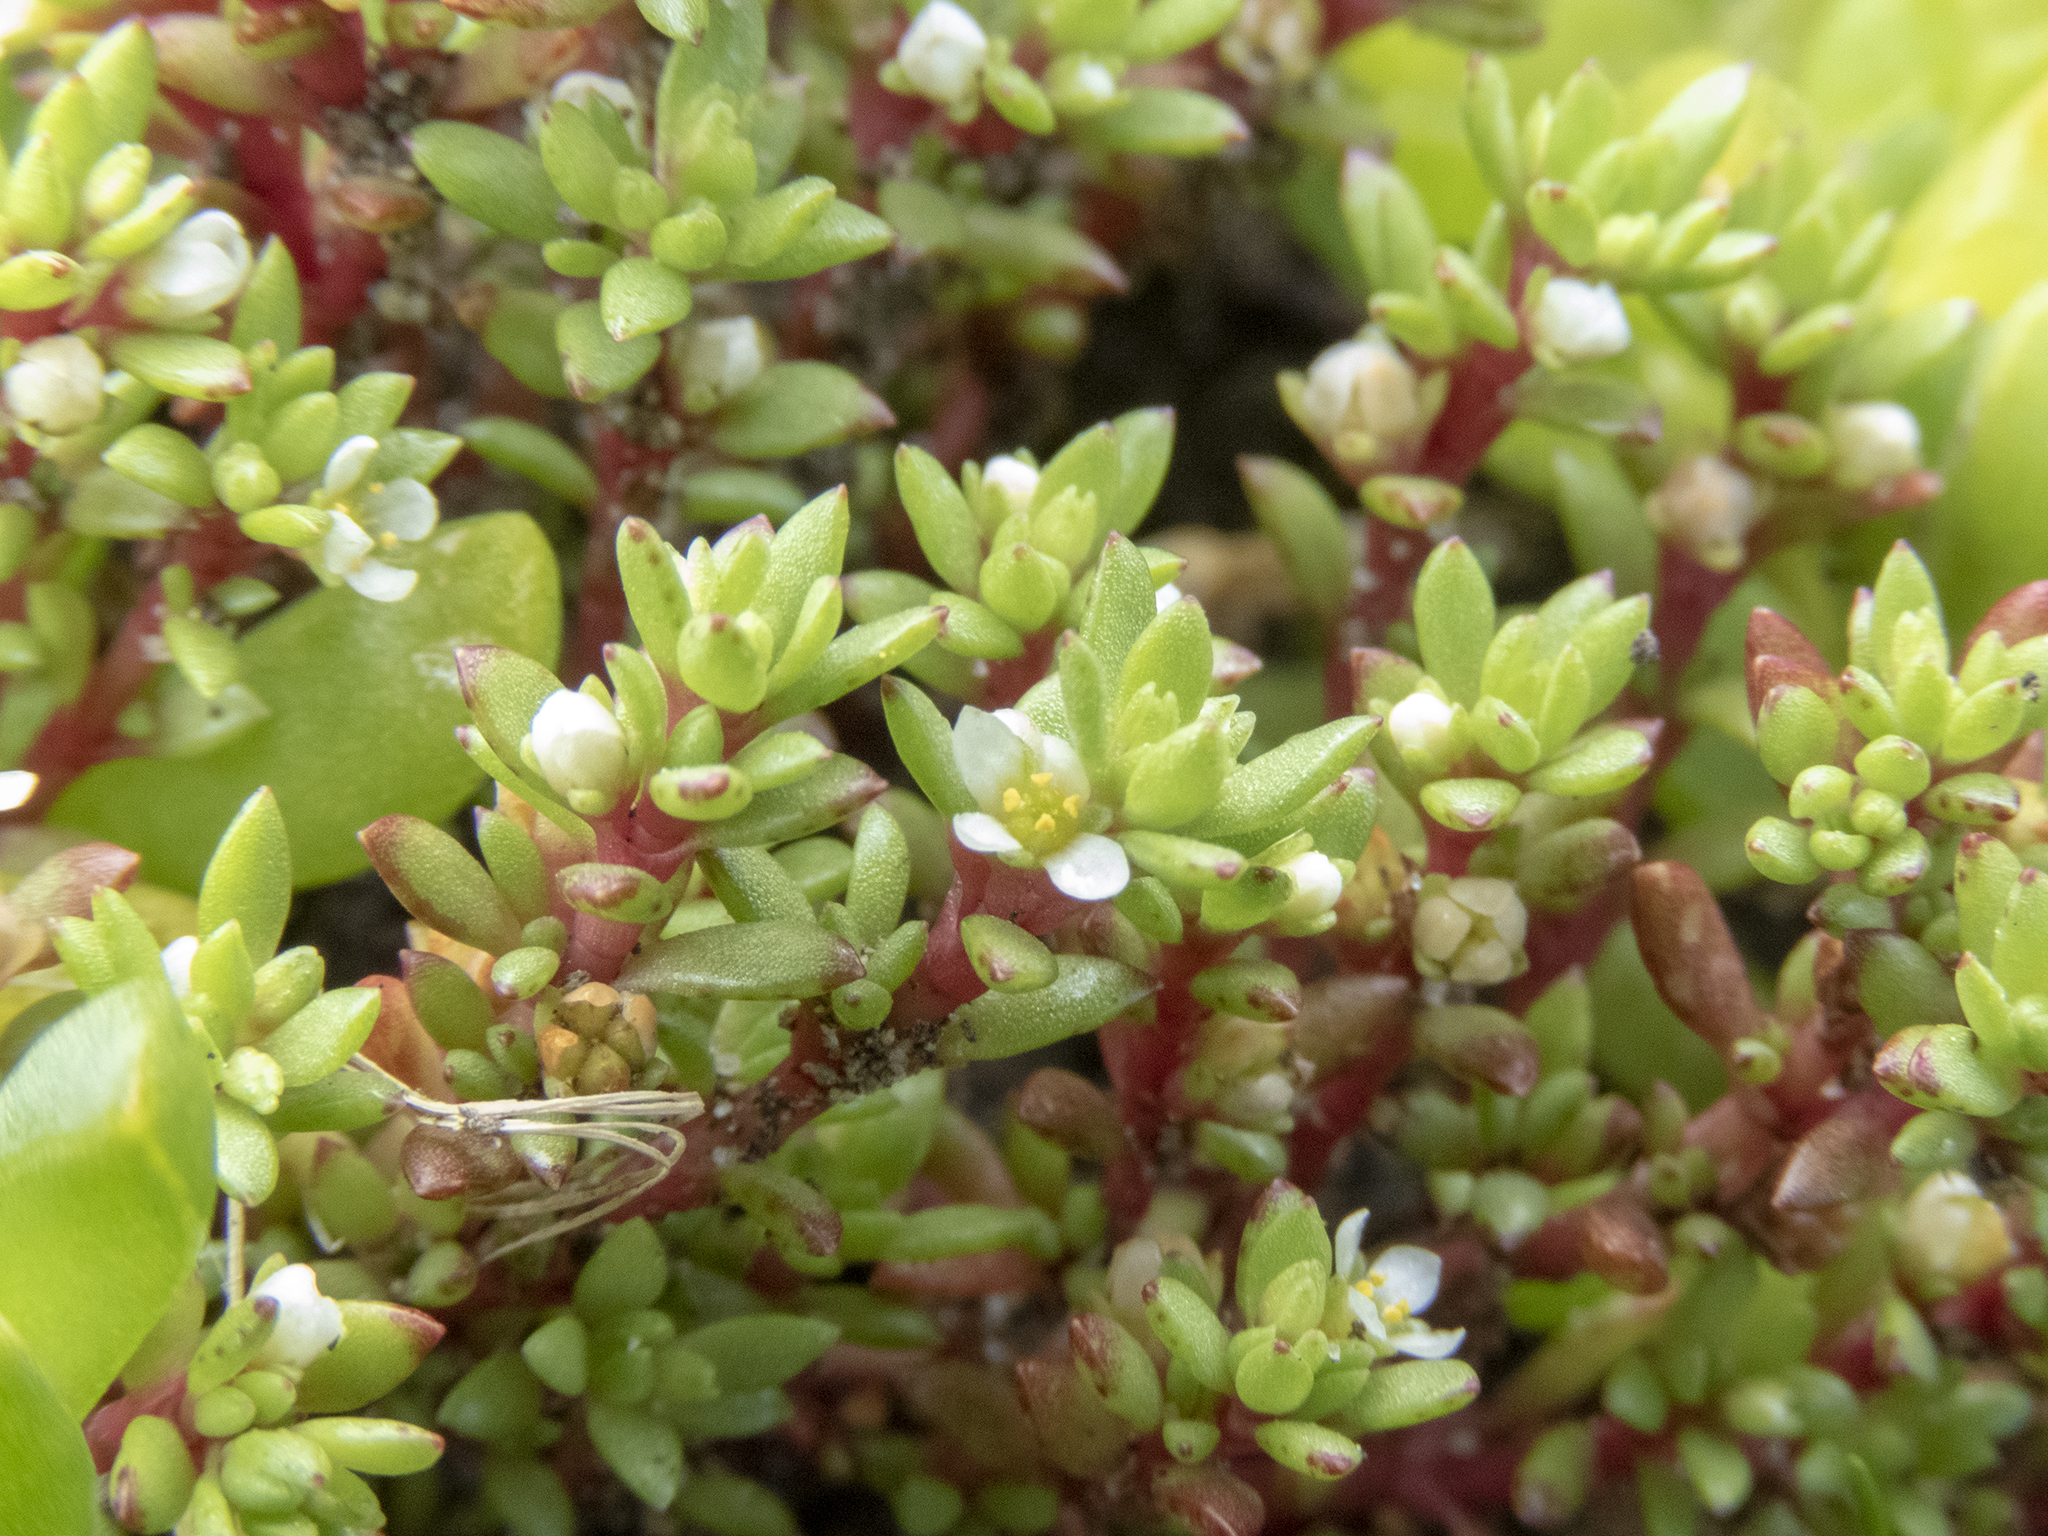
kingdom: Plantae
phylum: Tracheophyta
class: Magnoliopsida
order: Saxifragales
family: Crassulaceae
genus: Crassula
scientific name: Crassula moschata
